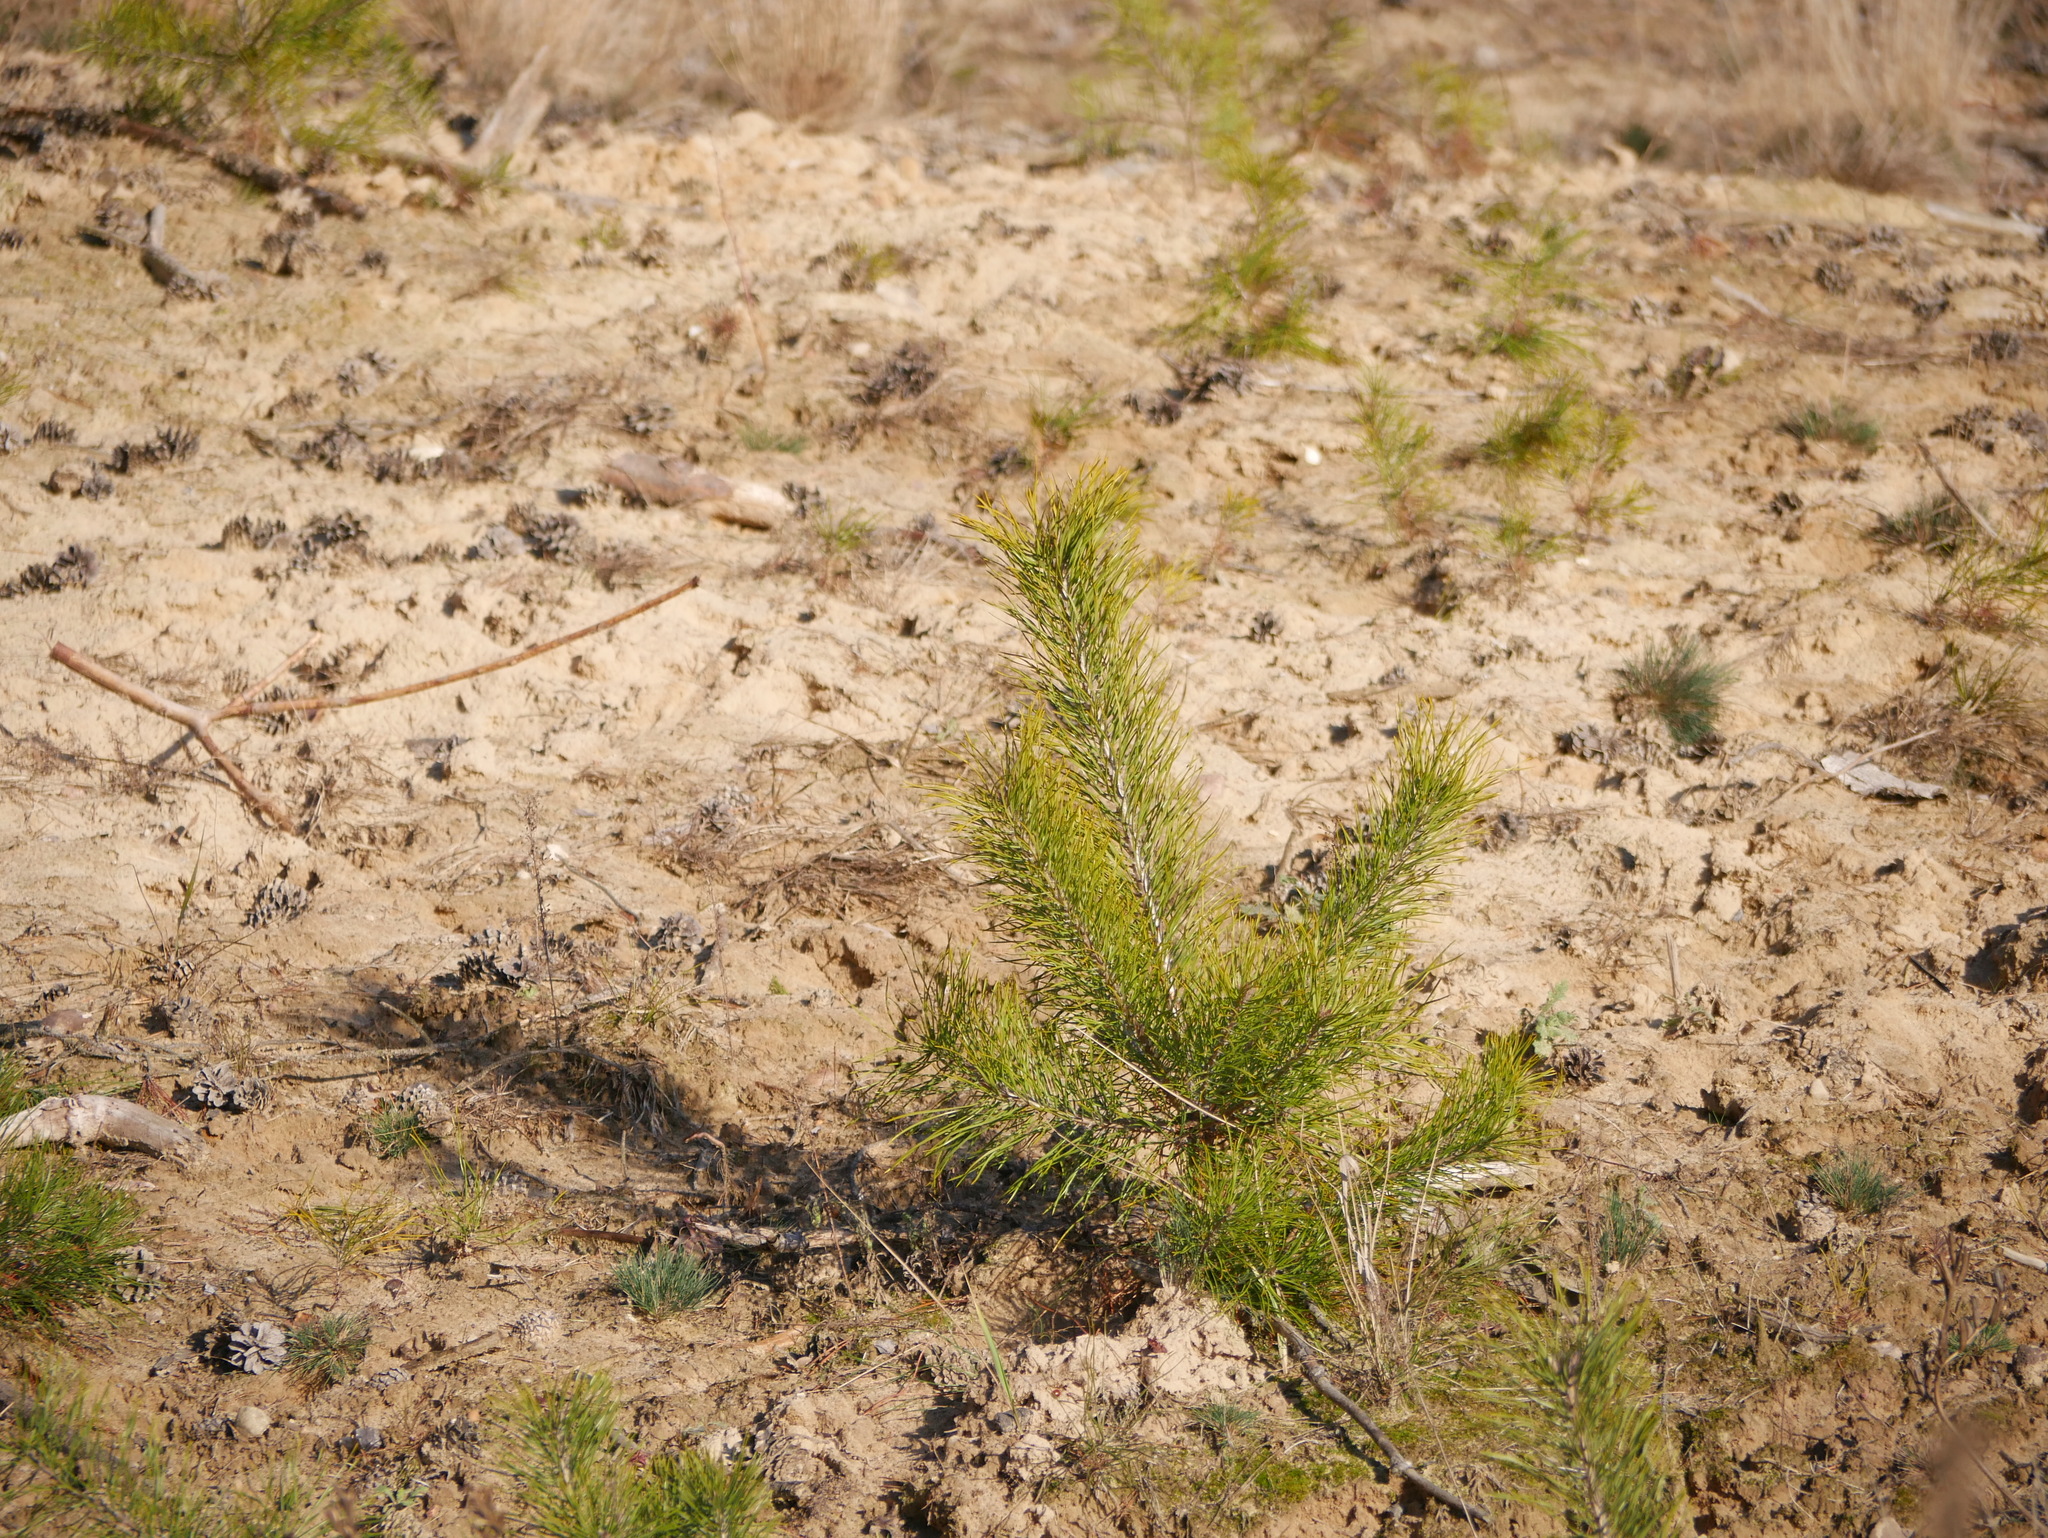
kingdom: Plantae
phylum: Tracheophyta
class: Pinopsida
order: Pinales
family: Pinaceae
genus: Pinus
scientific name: Pinus sylvestris
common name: Scots pine
